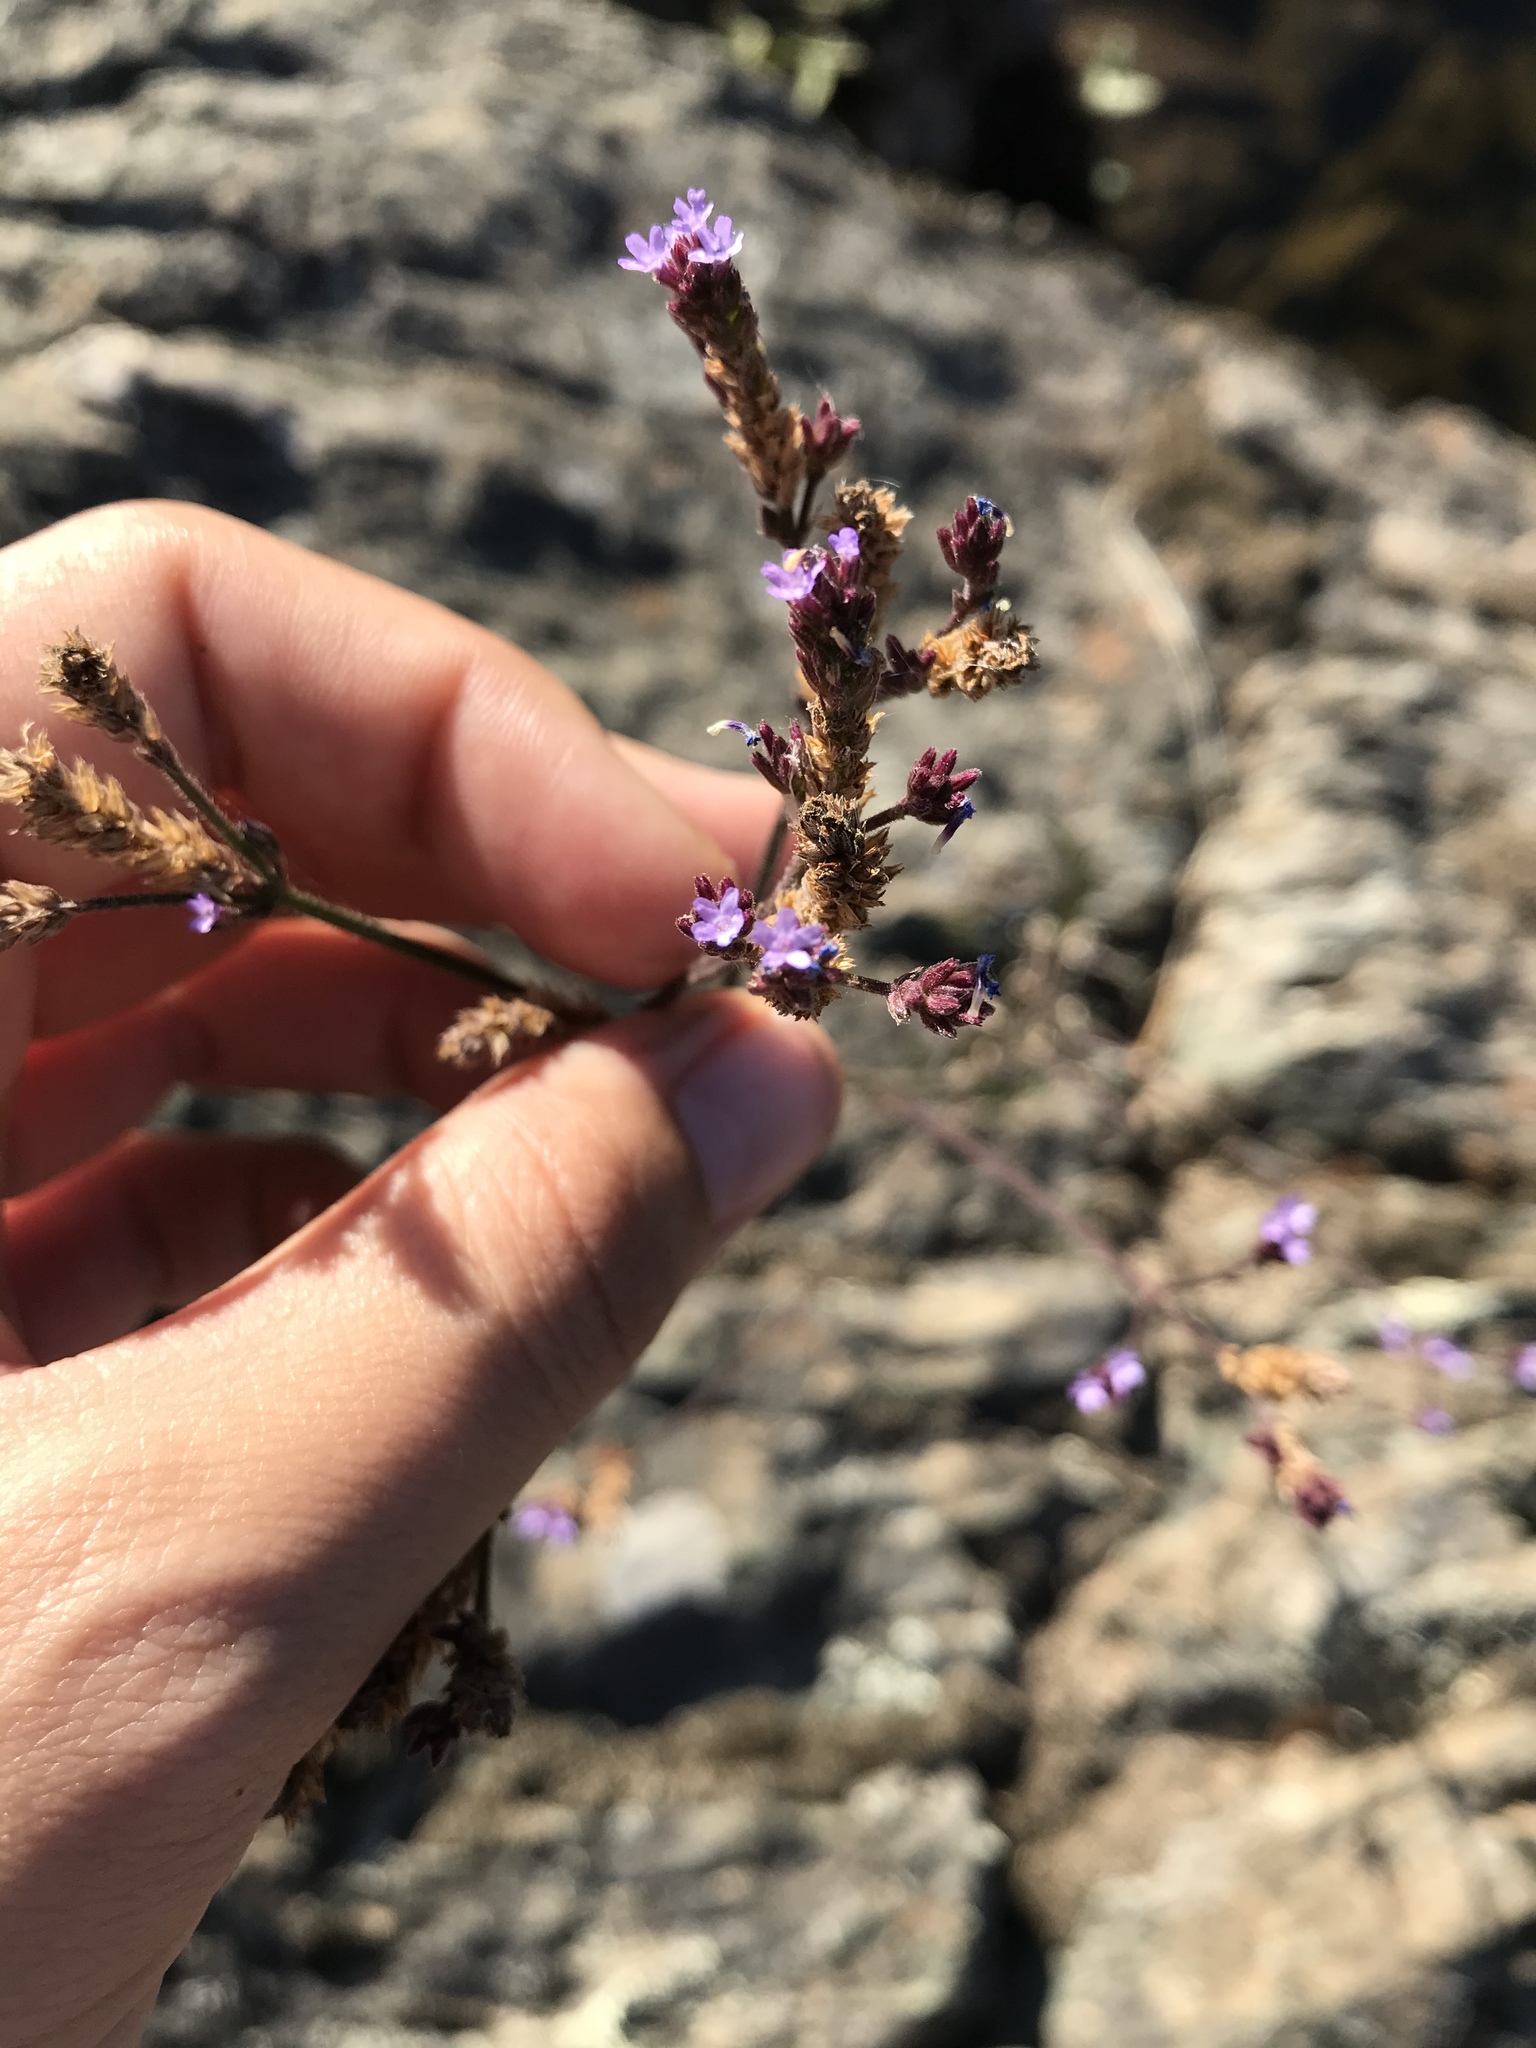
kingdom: Plantae
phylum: Tracheophyta
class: Magnoliopsida
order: Lamiales
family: Verbenaceae
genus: Verbena
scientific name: Verbena brasiliensis
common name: Brazilian vervain
